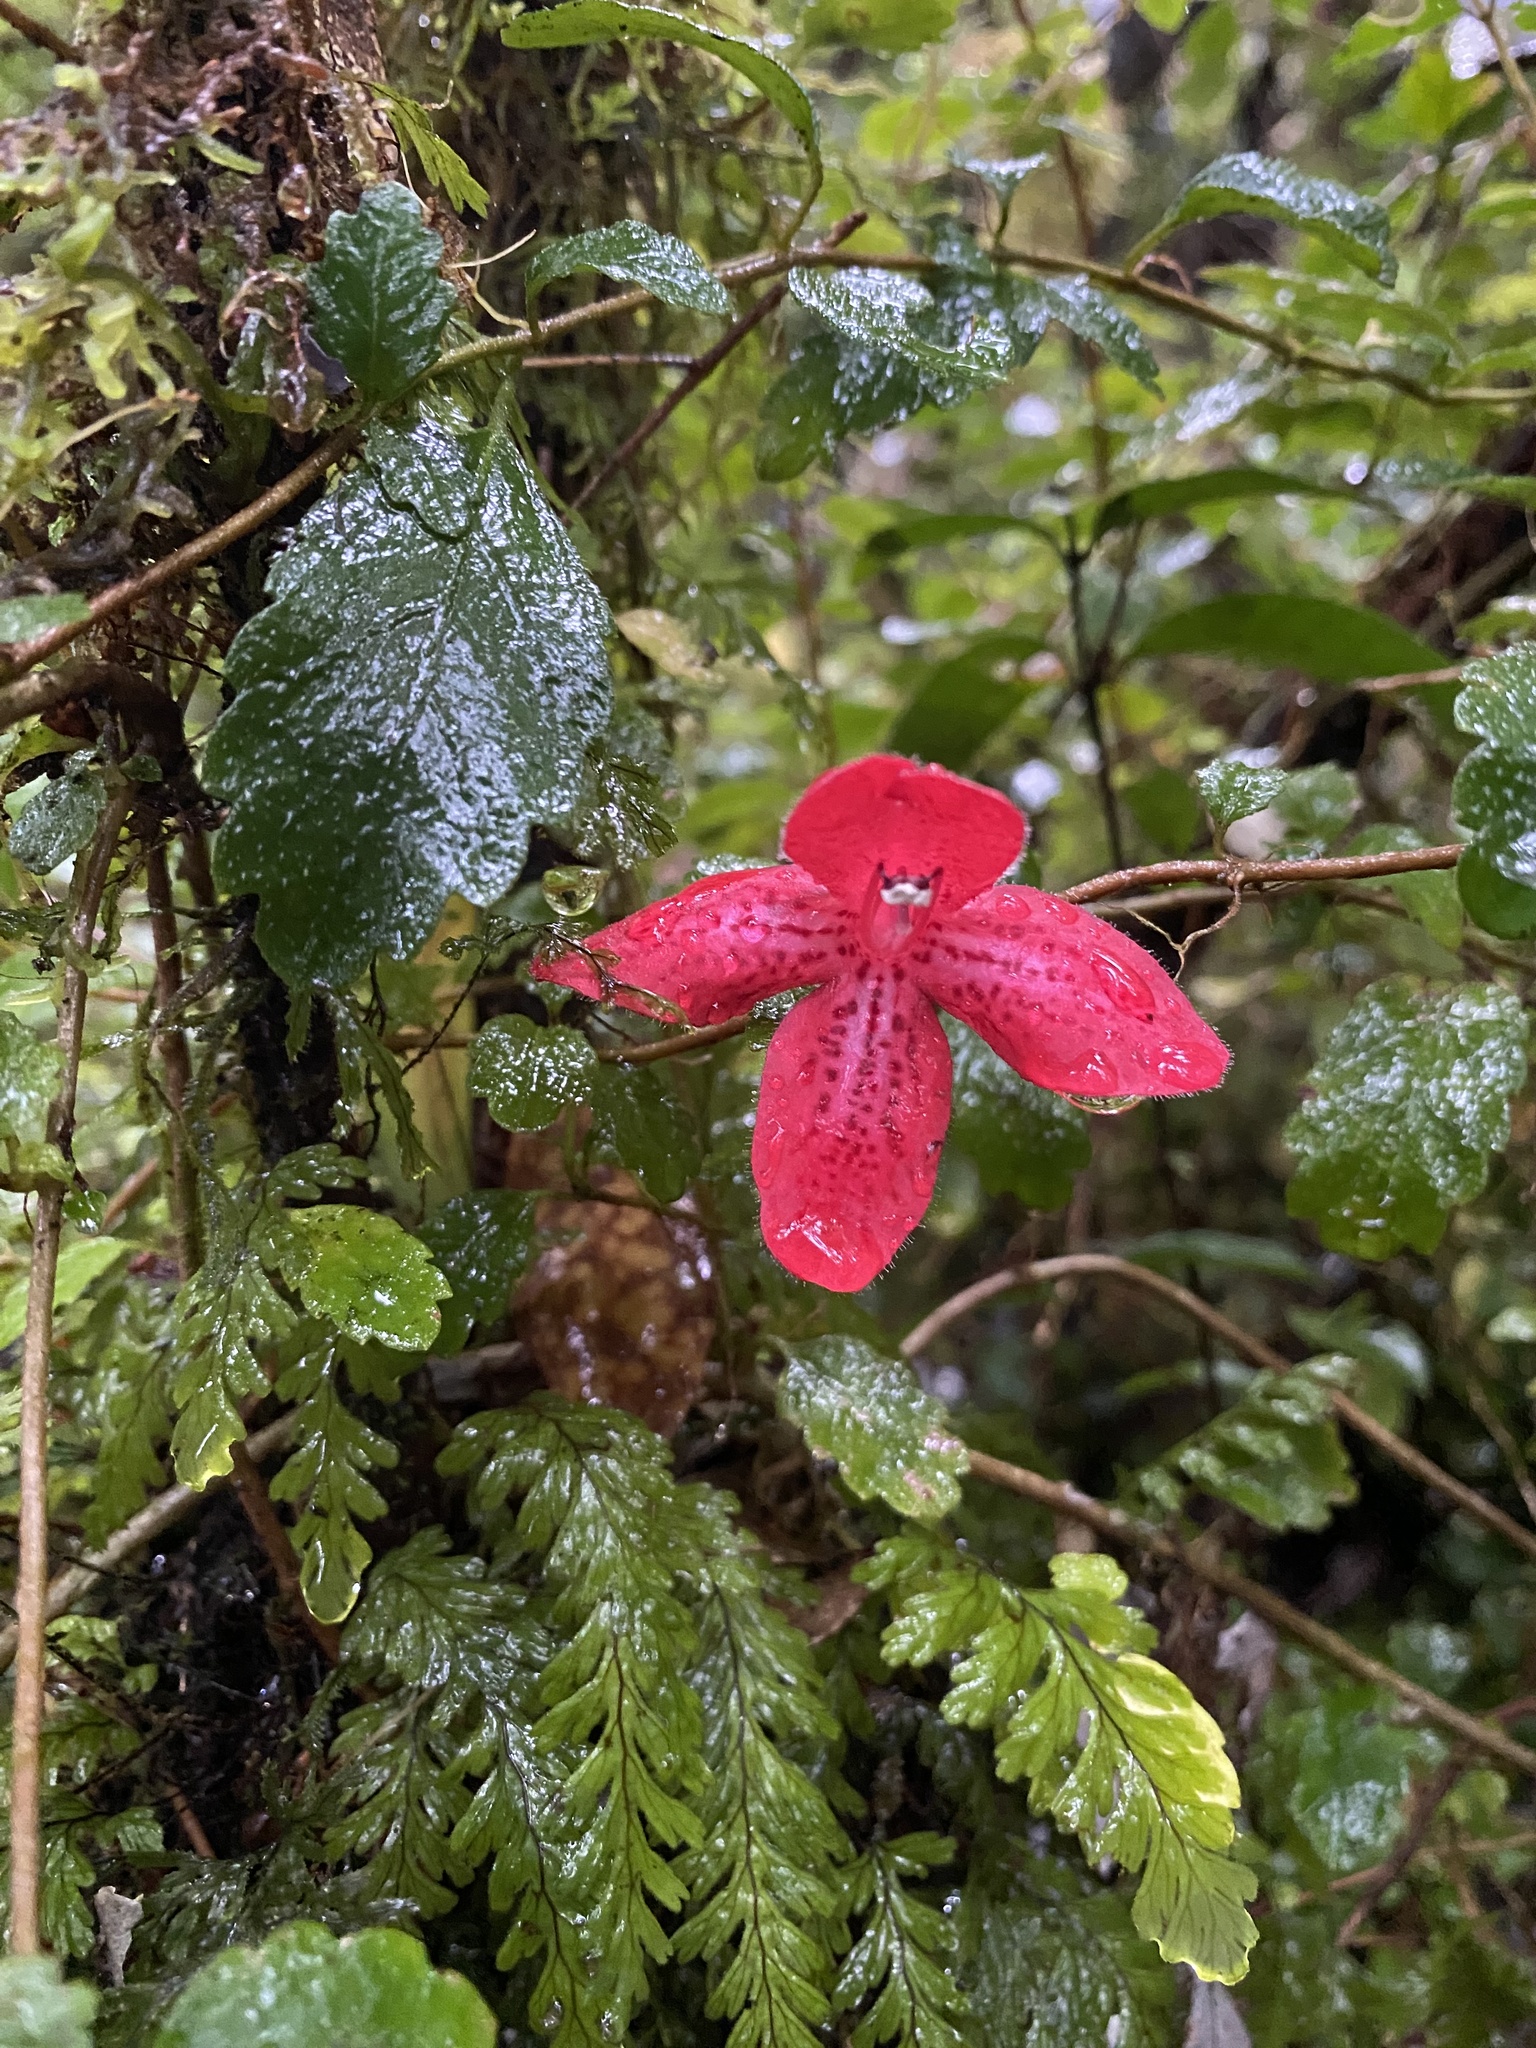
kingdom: Plantae
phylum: Tracheophyta
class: Magnoliopsida
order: Lamiales
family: Gesneriaceae
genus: Asteranthera
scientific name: Asteranthera ovata
